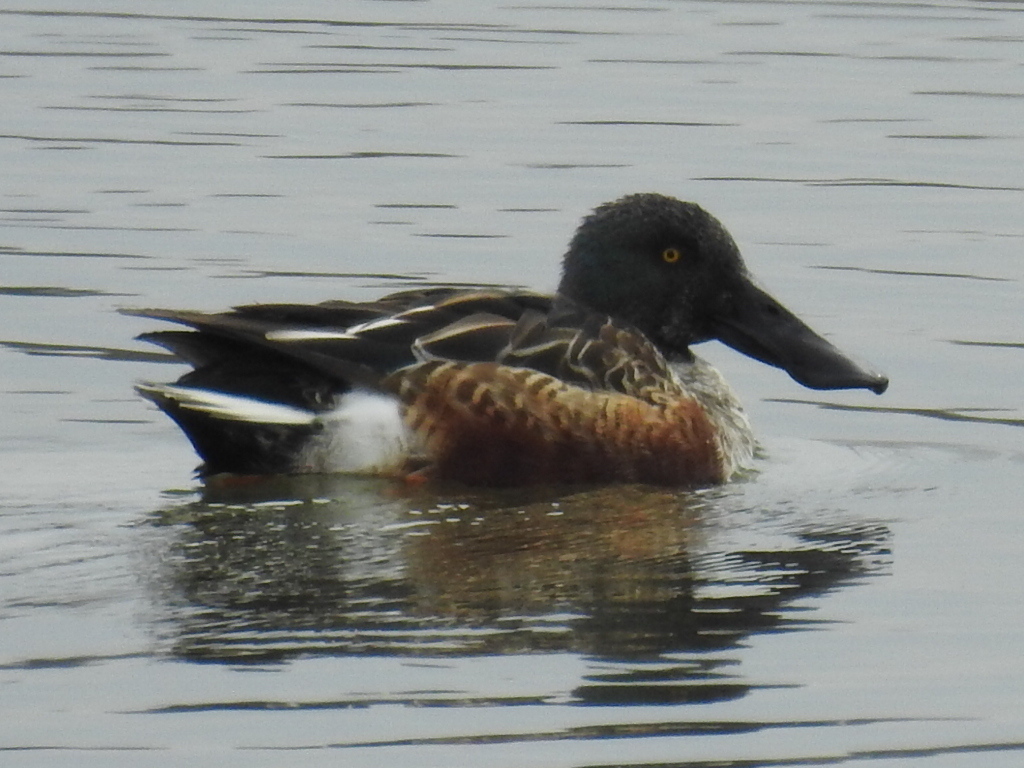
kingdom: Animalia
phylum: Chordata
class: Aves
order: Anseriformes
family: Anatidae
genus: Spatula
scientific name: Spatula clypeata
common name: Northern shoveler
